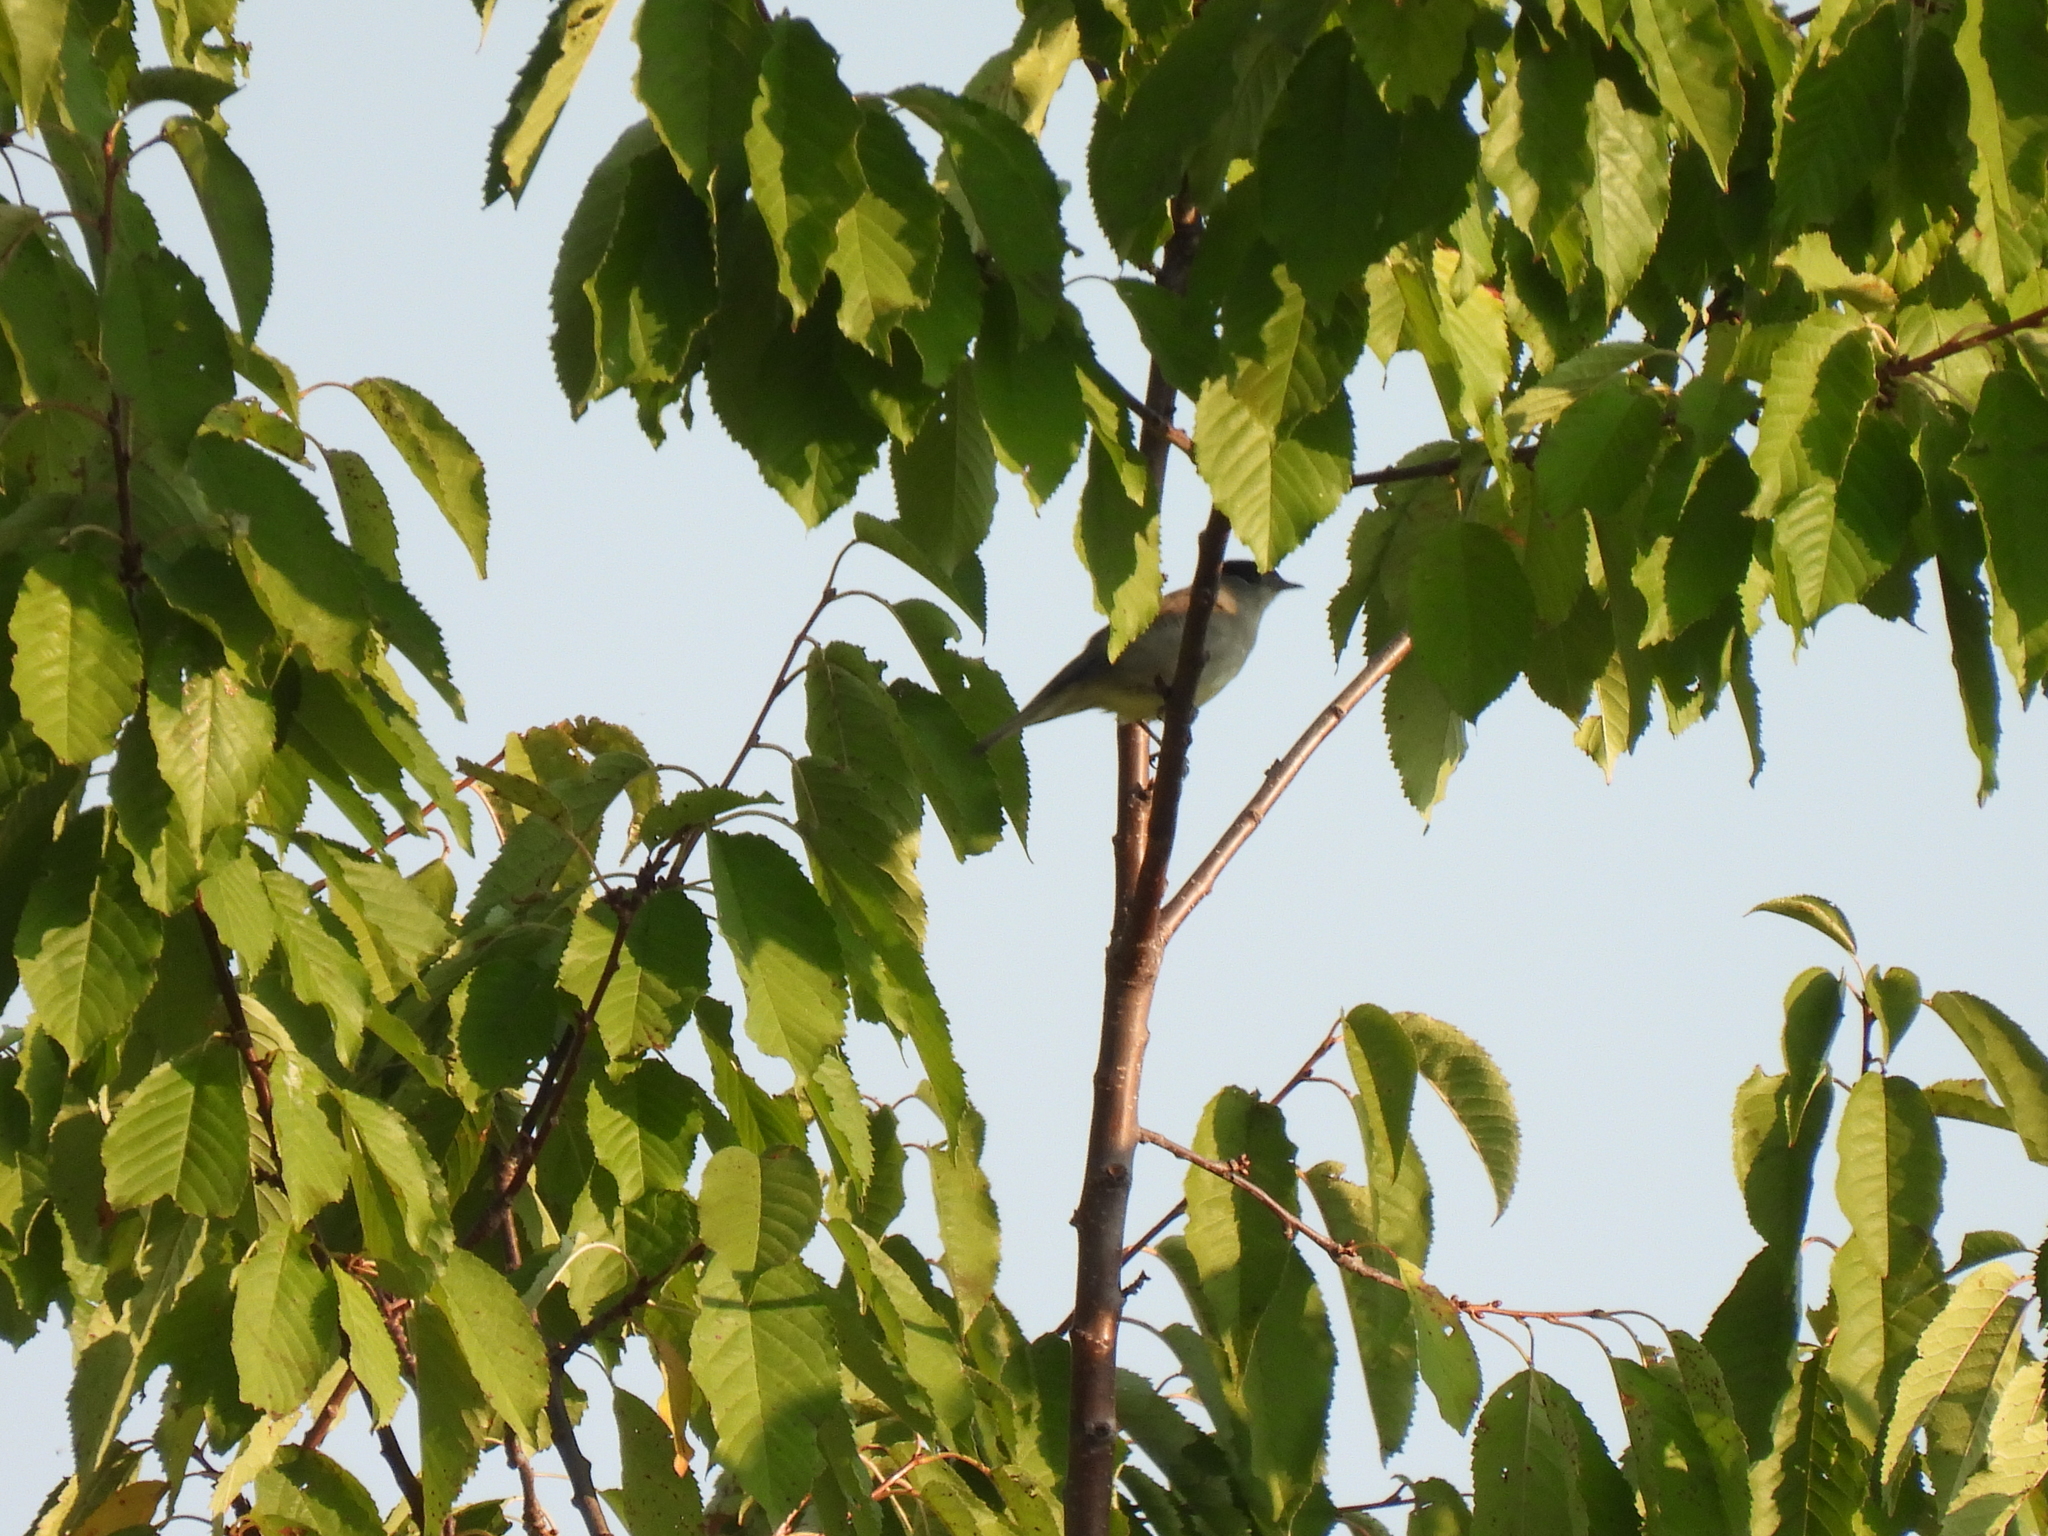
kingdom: Animalia
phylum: Chordata
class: Aves
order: Passeriformes
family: Sylviidae
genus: Sylvia
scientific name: Sylvia atricapilla
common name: Eurasian blackcap
